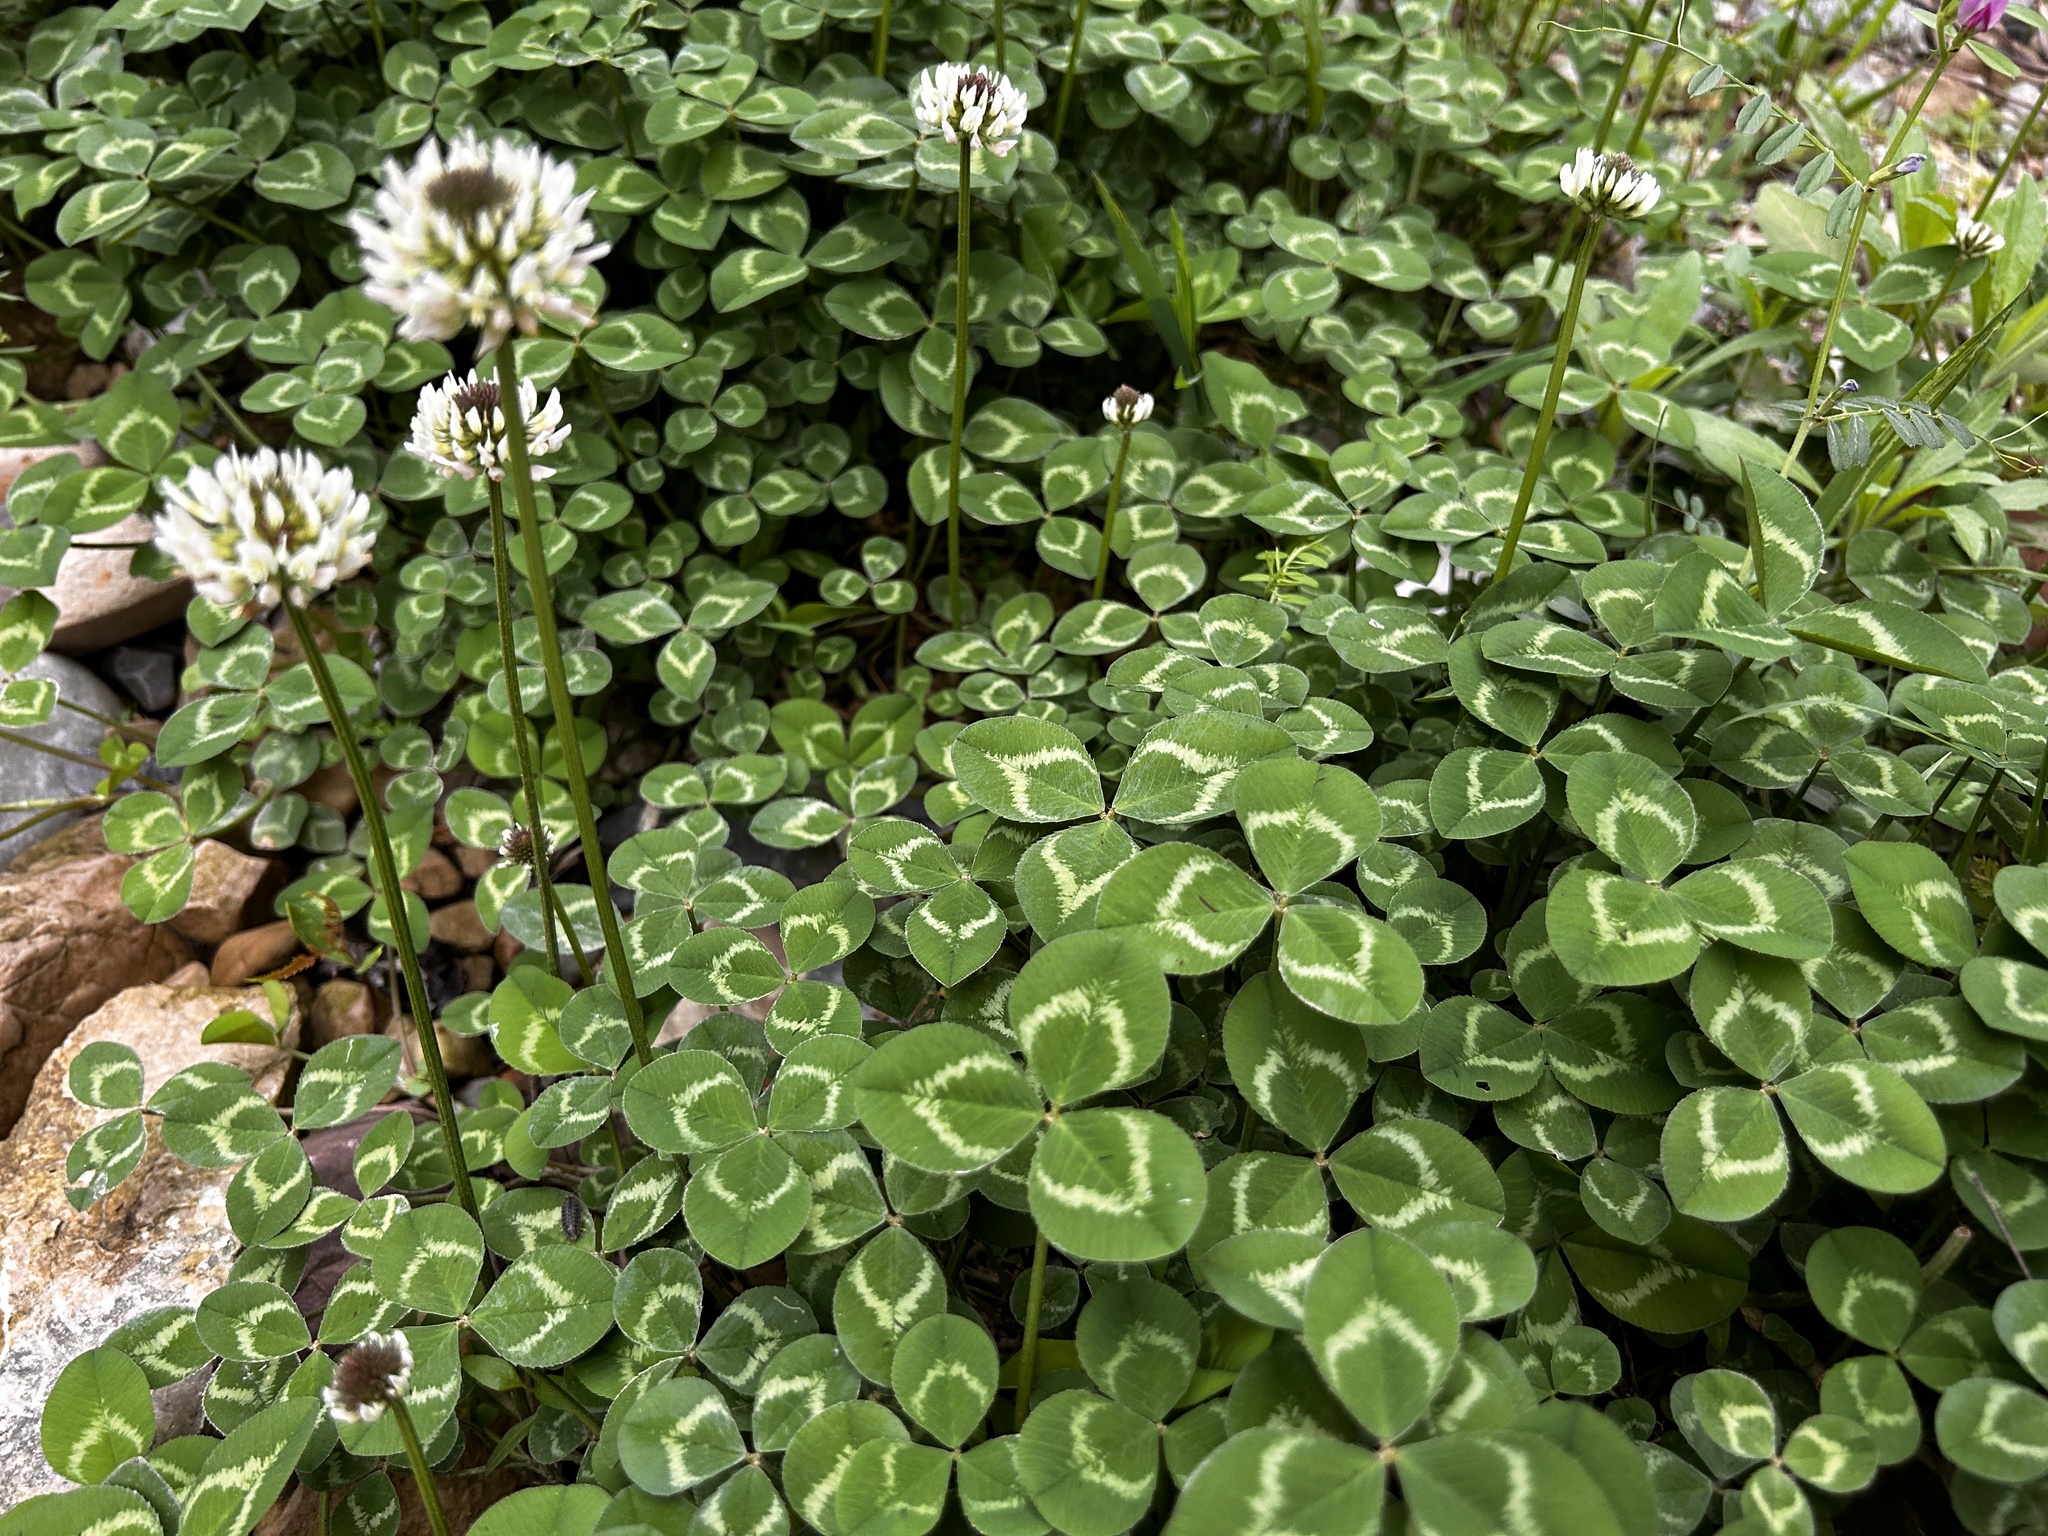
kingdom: Plantae
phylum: Tracheophyta
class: Magnoliopsida
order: Fabales
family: Fabaceae
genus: Trifolium
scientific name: Trifolium repens
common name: White clover
